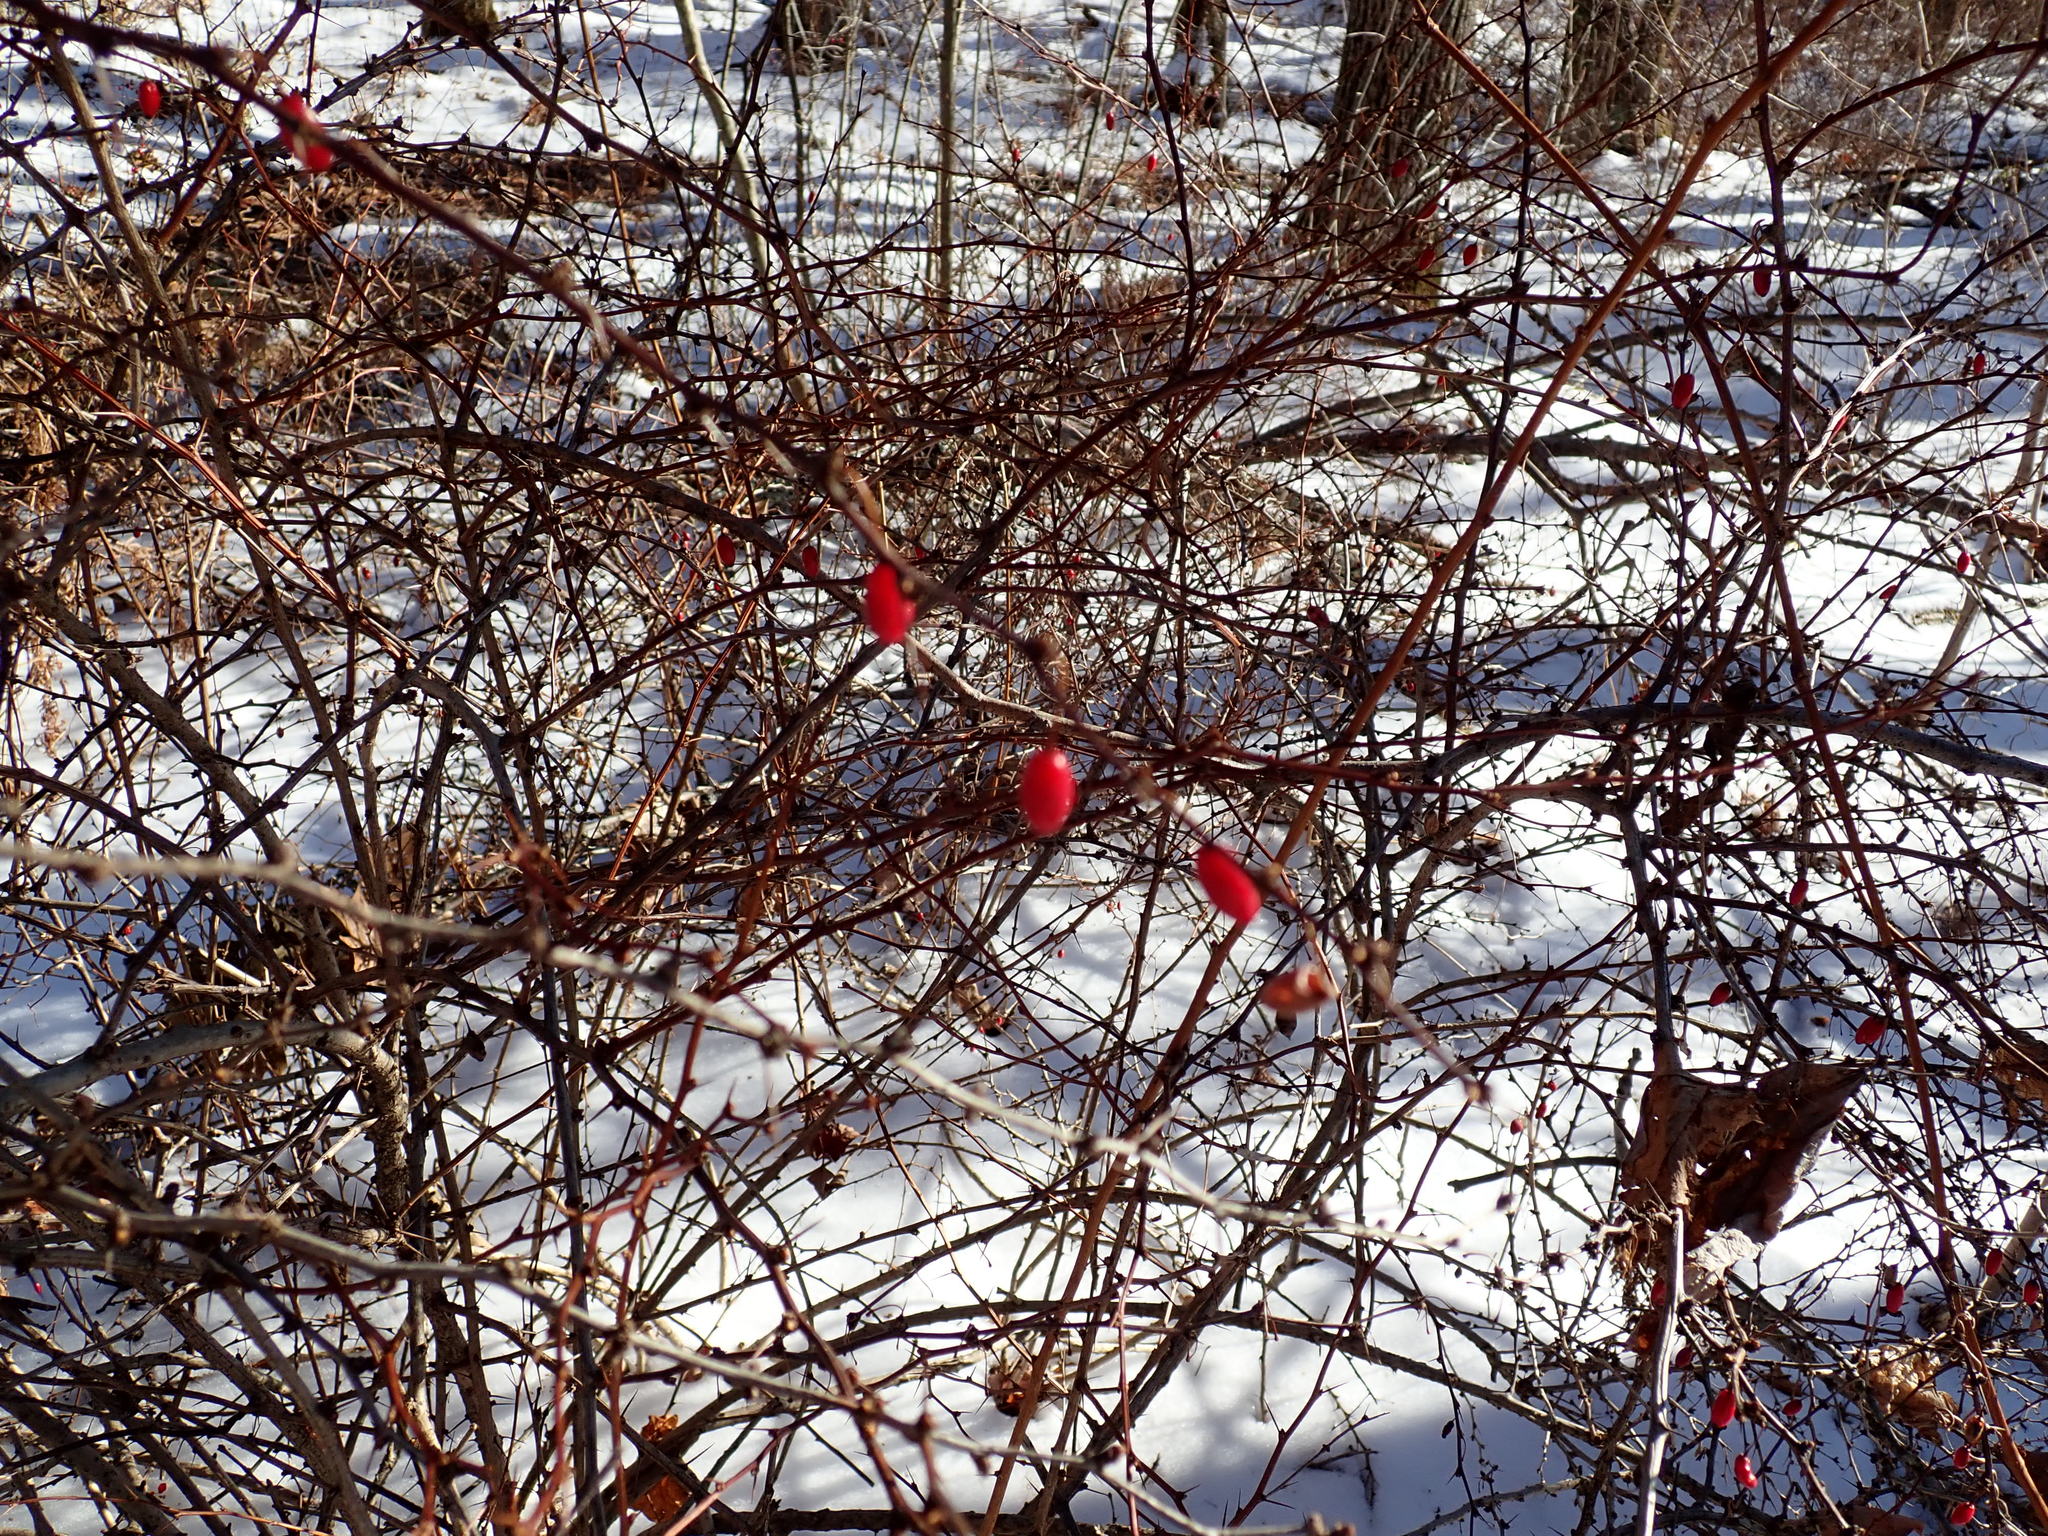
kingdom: Plantae
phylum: Tracheophyta
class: Magnoliopsida
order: Ranunculales
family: Berberidaceae
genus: Berberis
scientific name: Berberis thunbergii
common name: Japanese barberry
